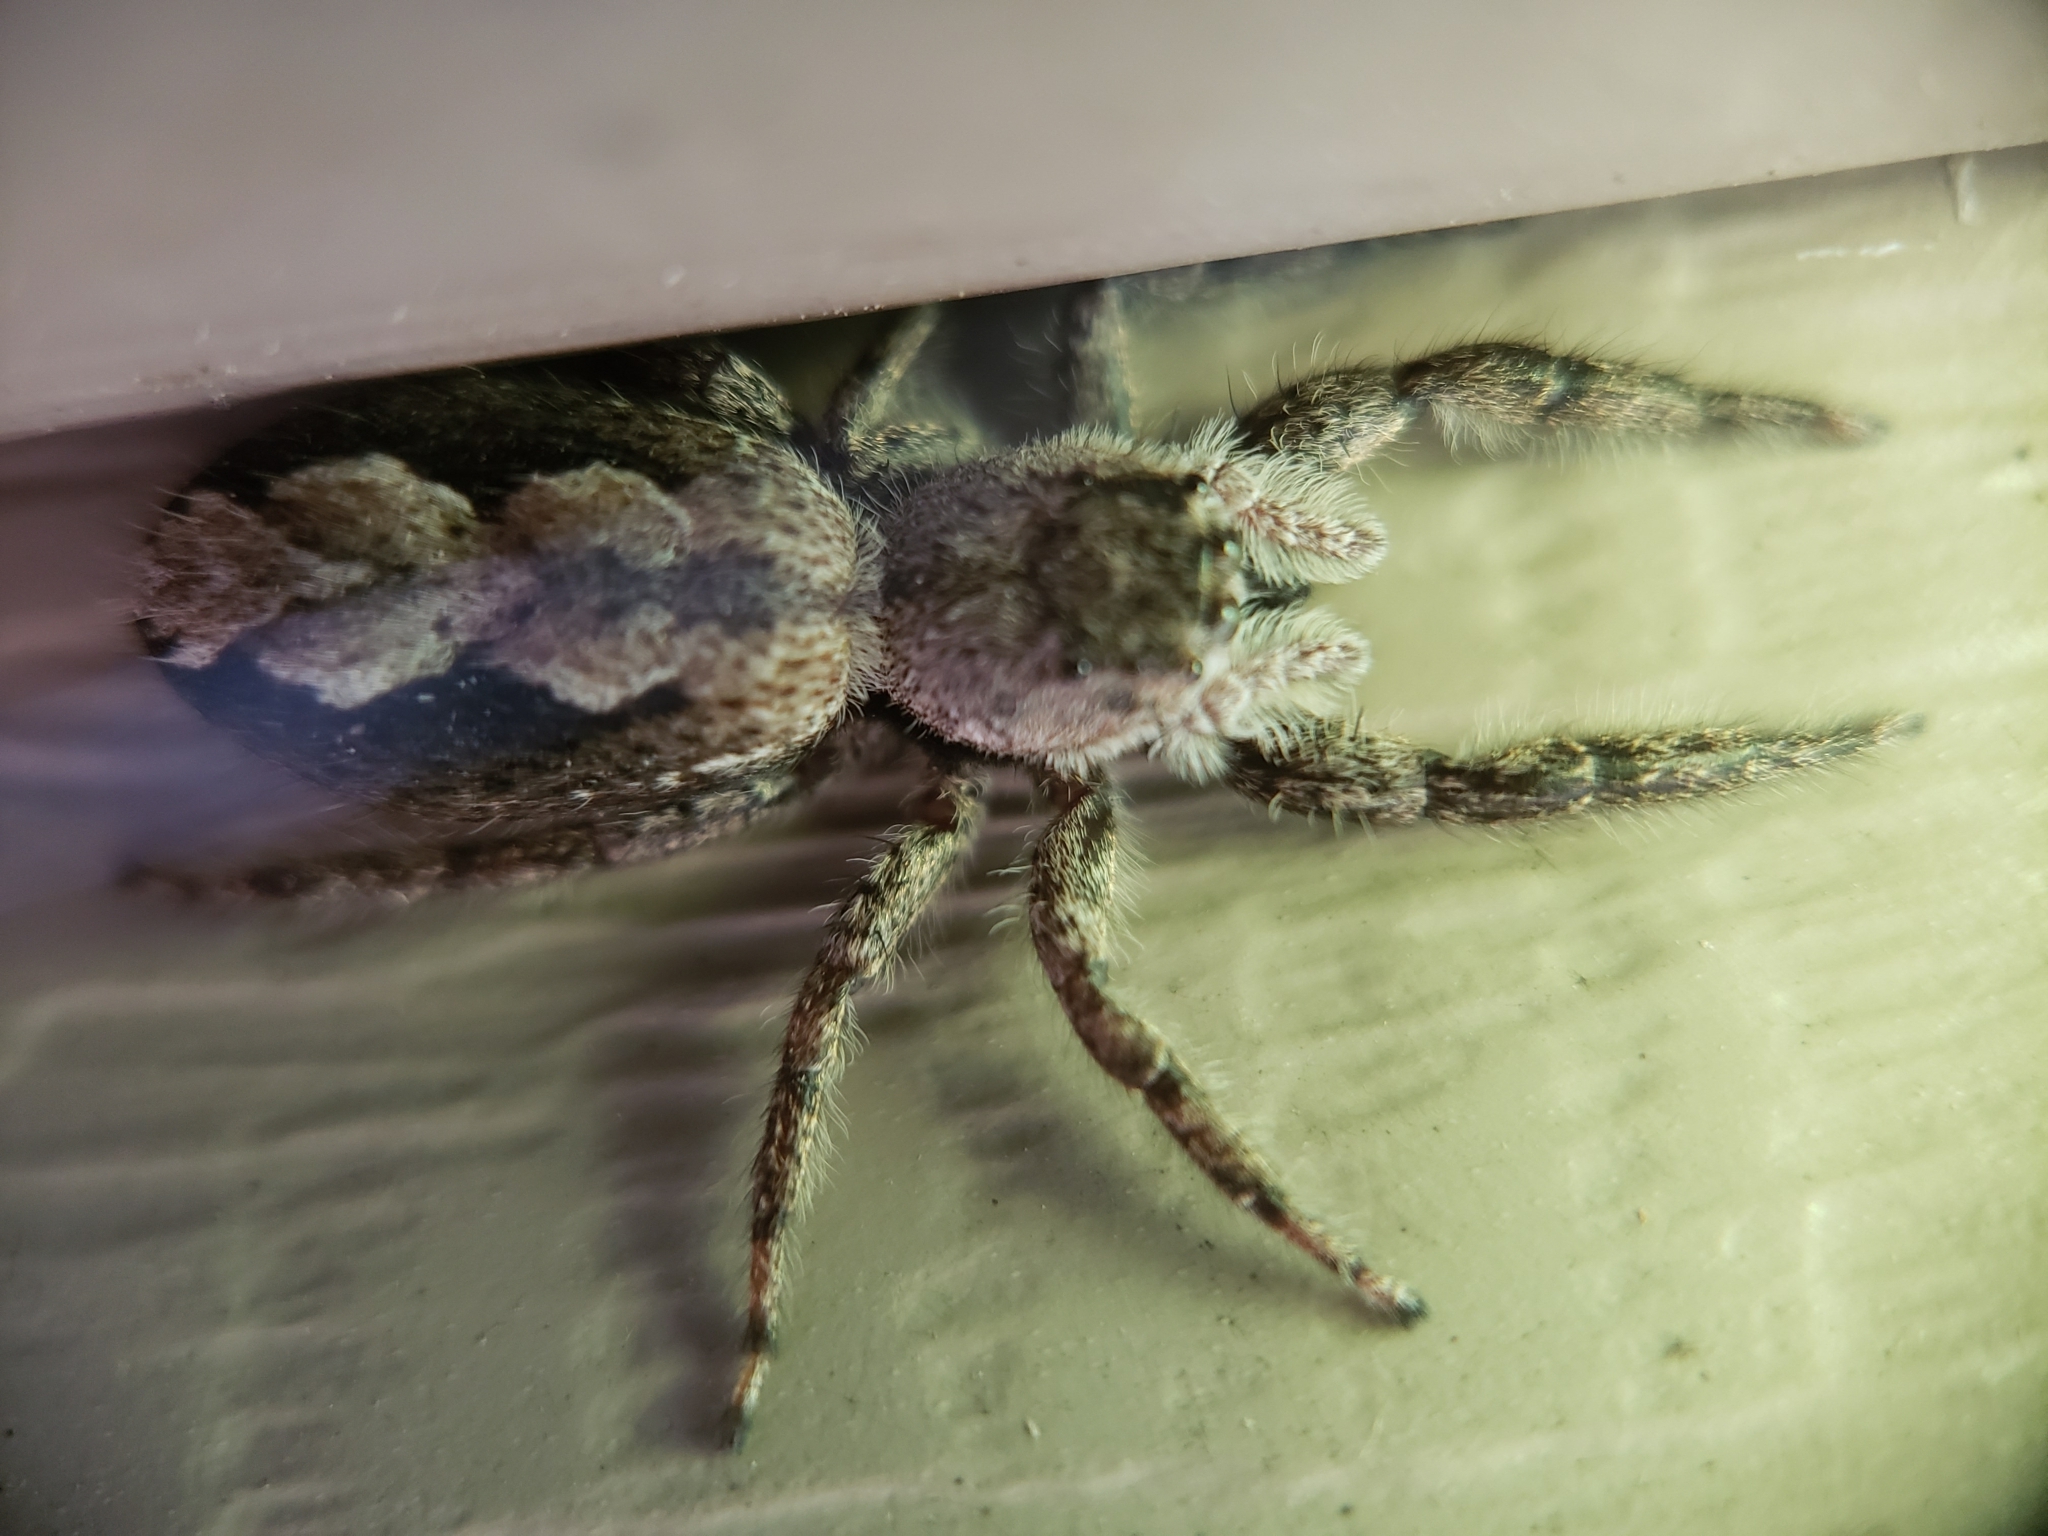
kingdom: Animalia
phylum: Arthropoda
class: Arachnida
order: Araneae
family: Salticidae
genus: Platycryptus
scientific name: Platycryptus undatus
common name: Tan jumping spider
